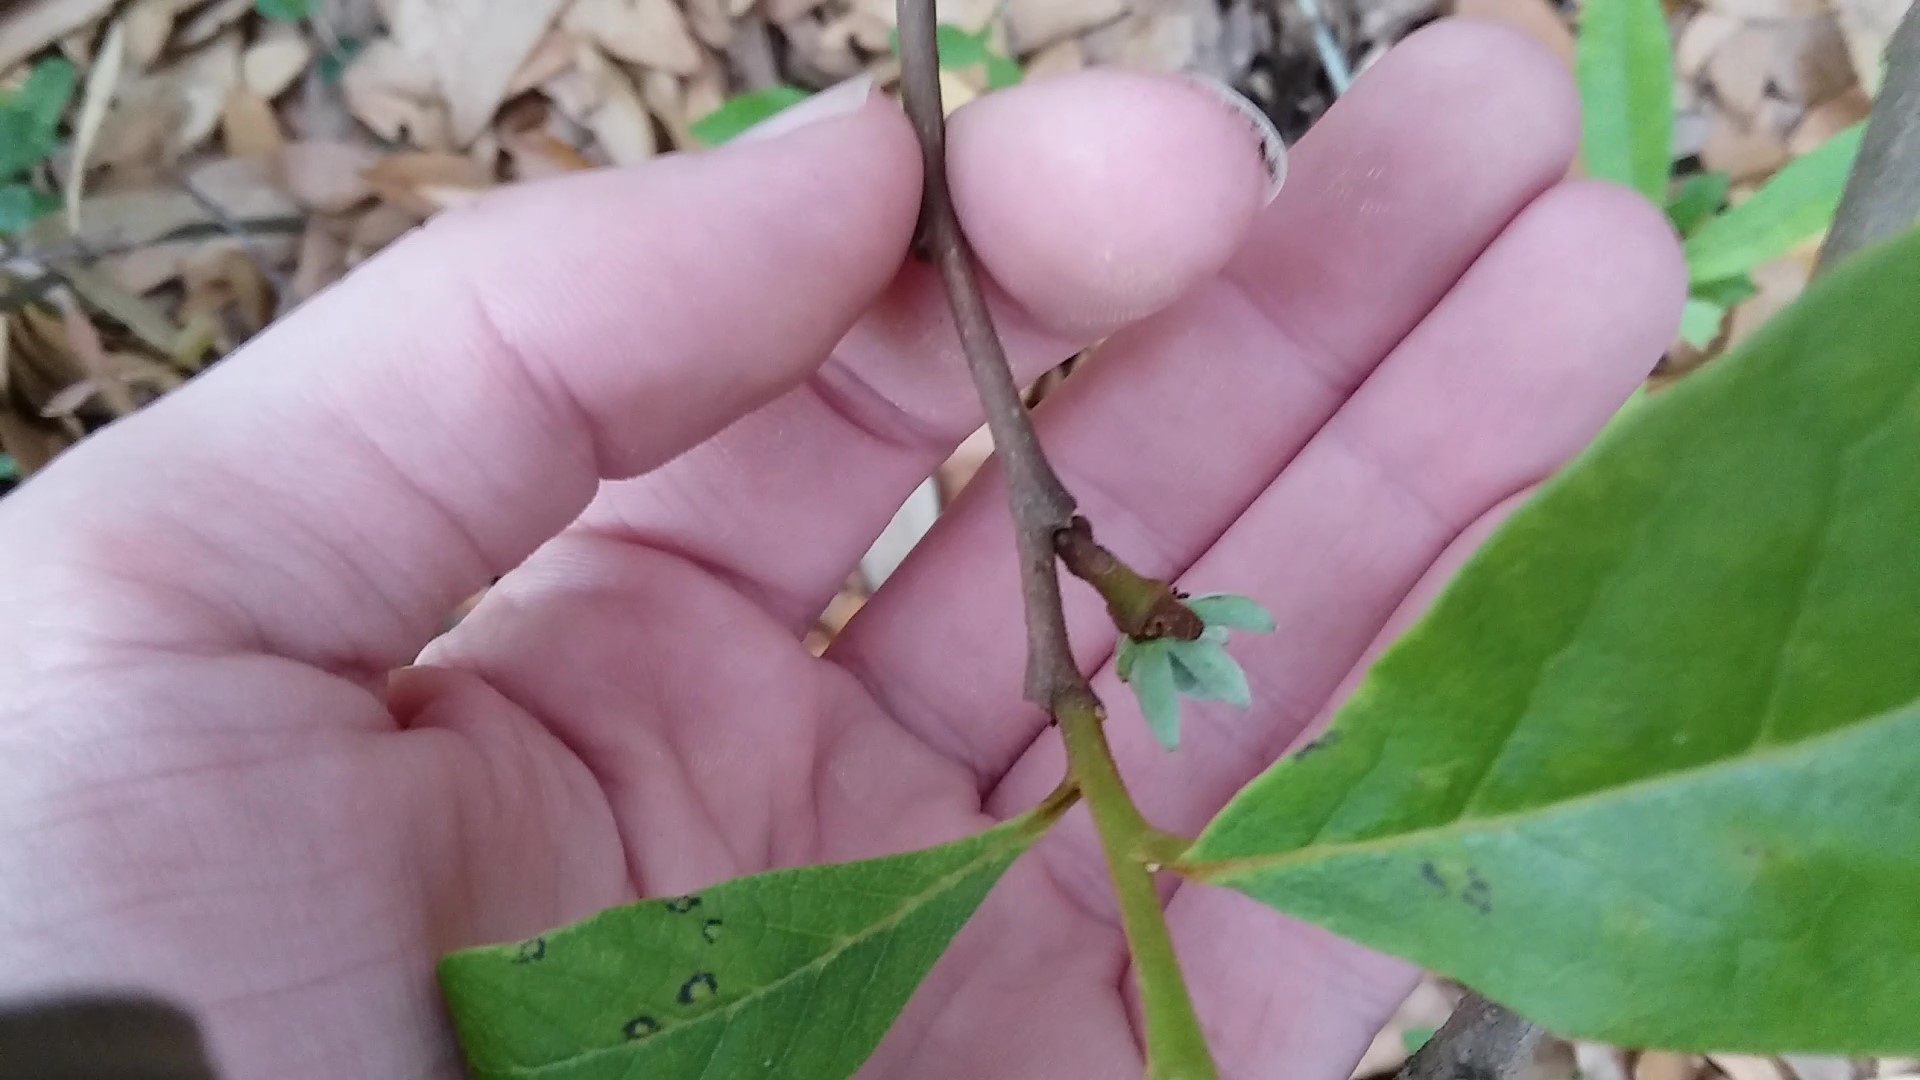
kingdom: Plantae
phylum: Tracheophyta
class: Magnoliopsida
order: Magnoliales
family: Annonaceae
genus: Asimina
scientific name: Asimina parviflora
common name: Dwarf pawpaw
